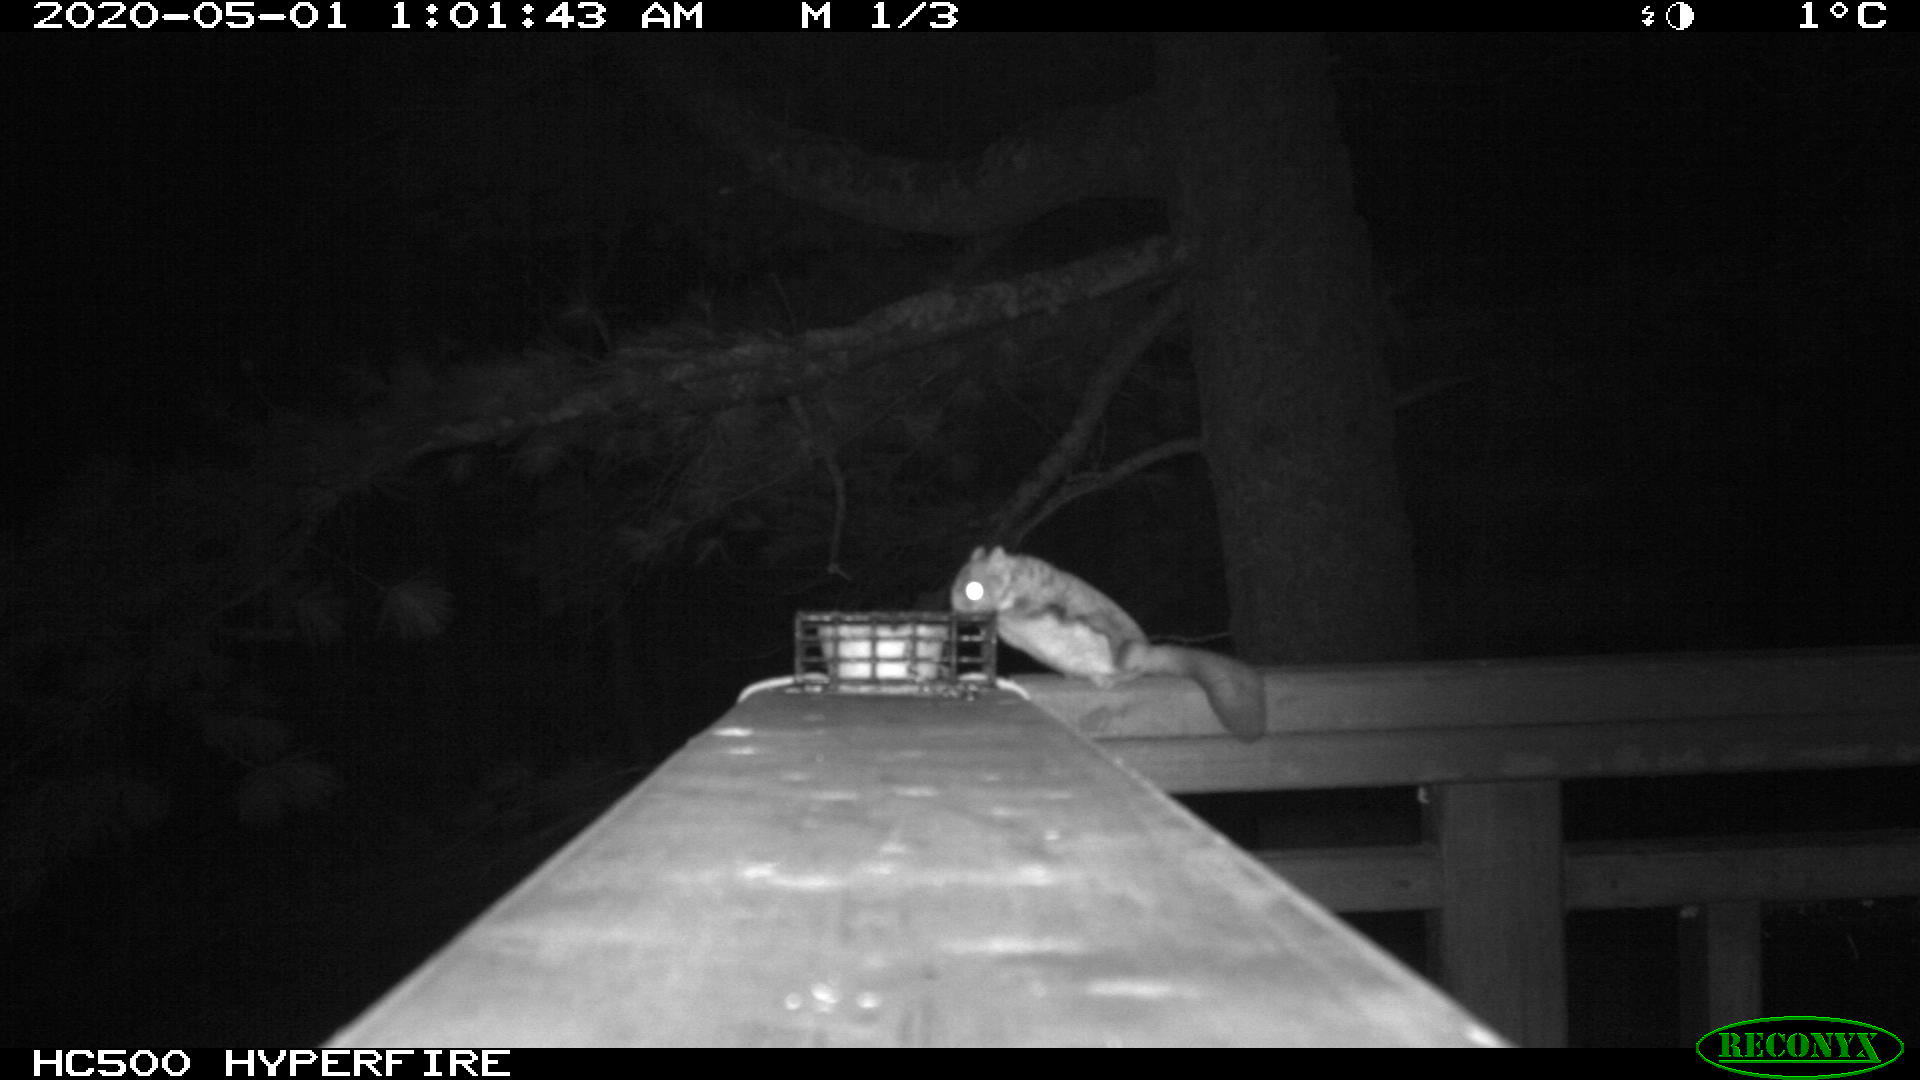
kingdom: Animalia
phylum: Chordata
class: Mammalia
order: Rodentia
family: Sciuridae
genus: Glaucomys
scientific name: Glaucomys sabrinus
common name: Northern flying squirrel
